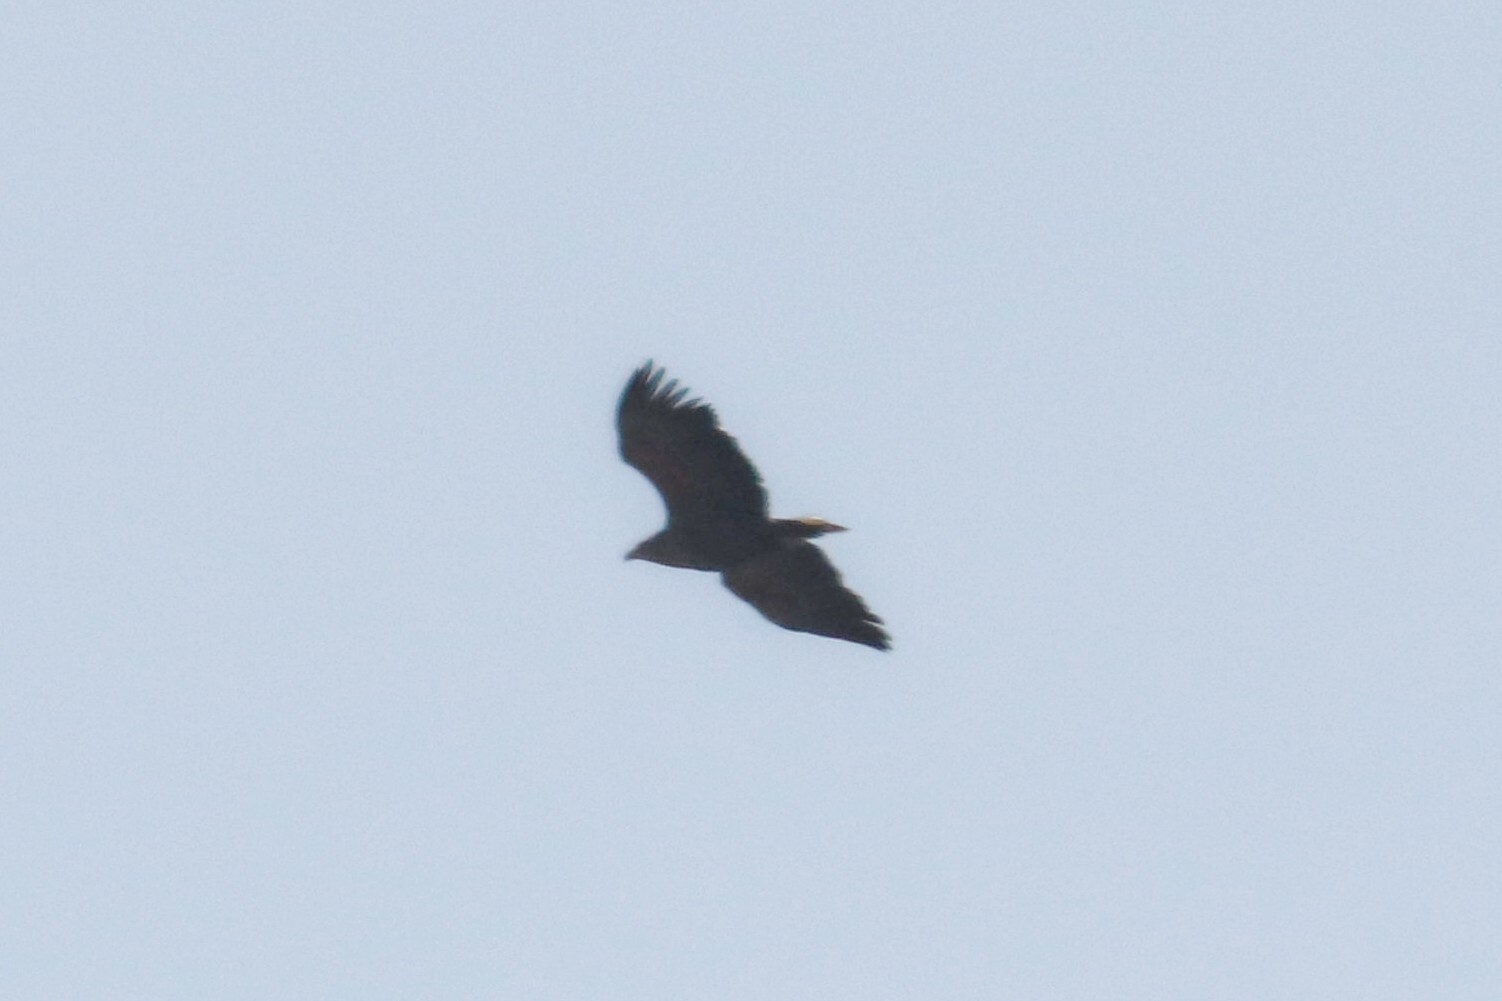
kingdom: Animalia
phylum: Chordata
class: Aves
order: Accipitriformes
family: Accipitridae
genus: Haliaeetus
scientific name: Haliaeetus albicilla
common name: White-tailed eagle
